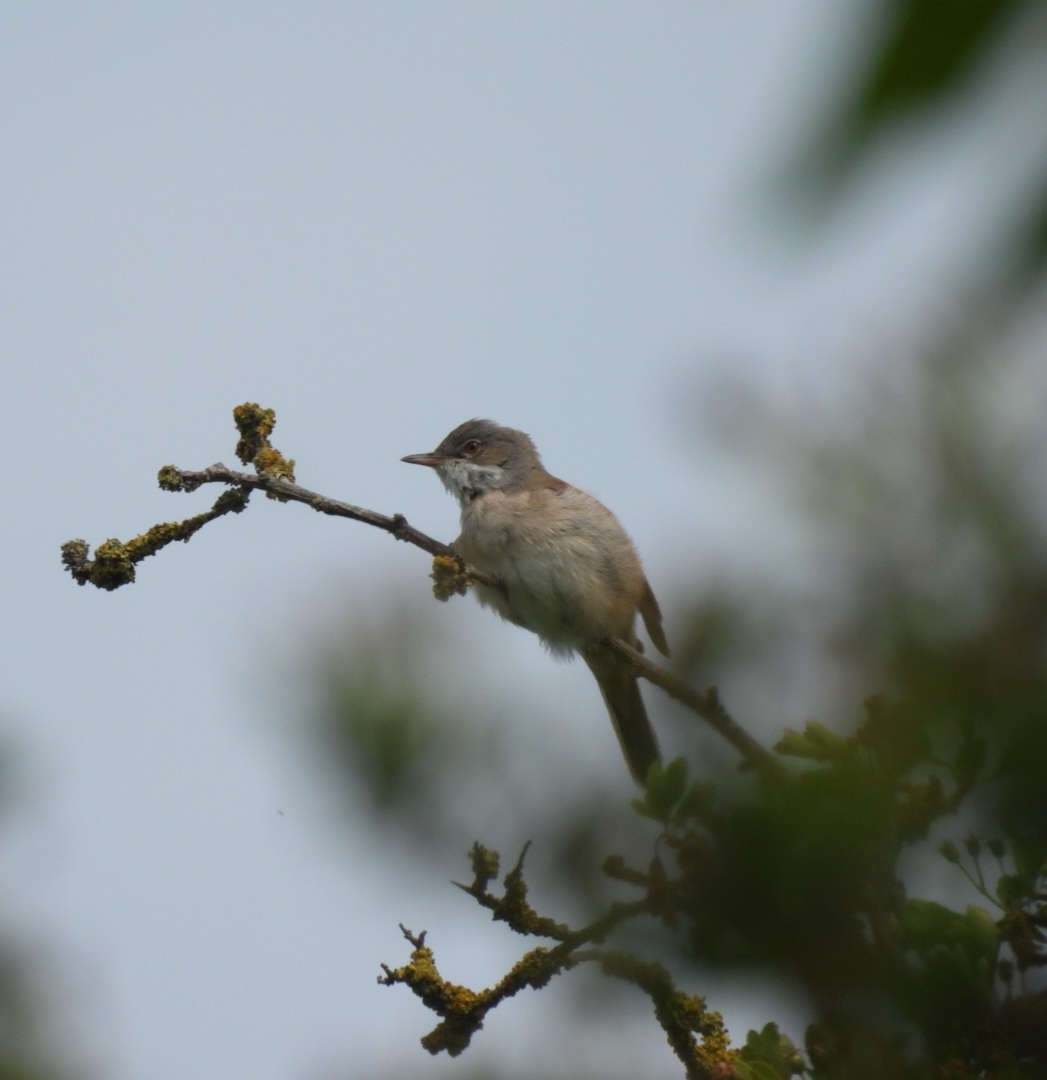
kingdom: Animalia
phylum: Chordata
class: Aves
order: Passeriformes
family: Sylviidae
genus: Sylvia
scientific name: Sylvia communis
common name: Common whitethroat
